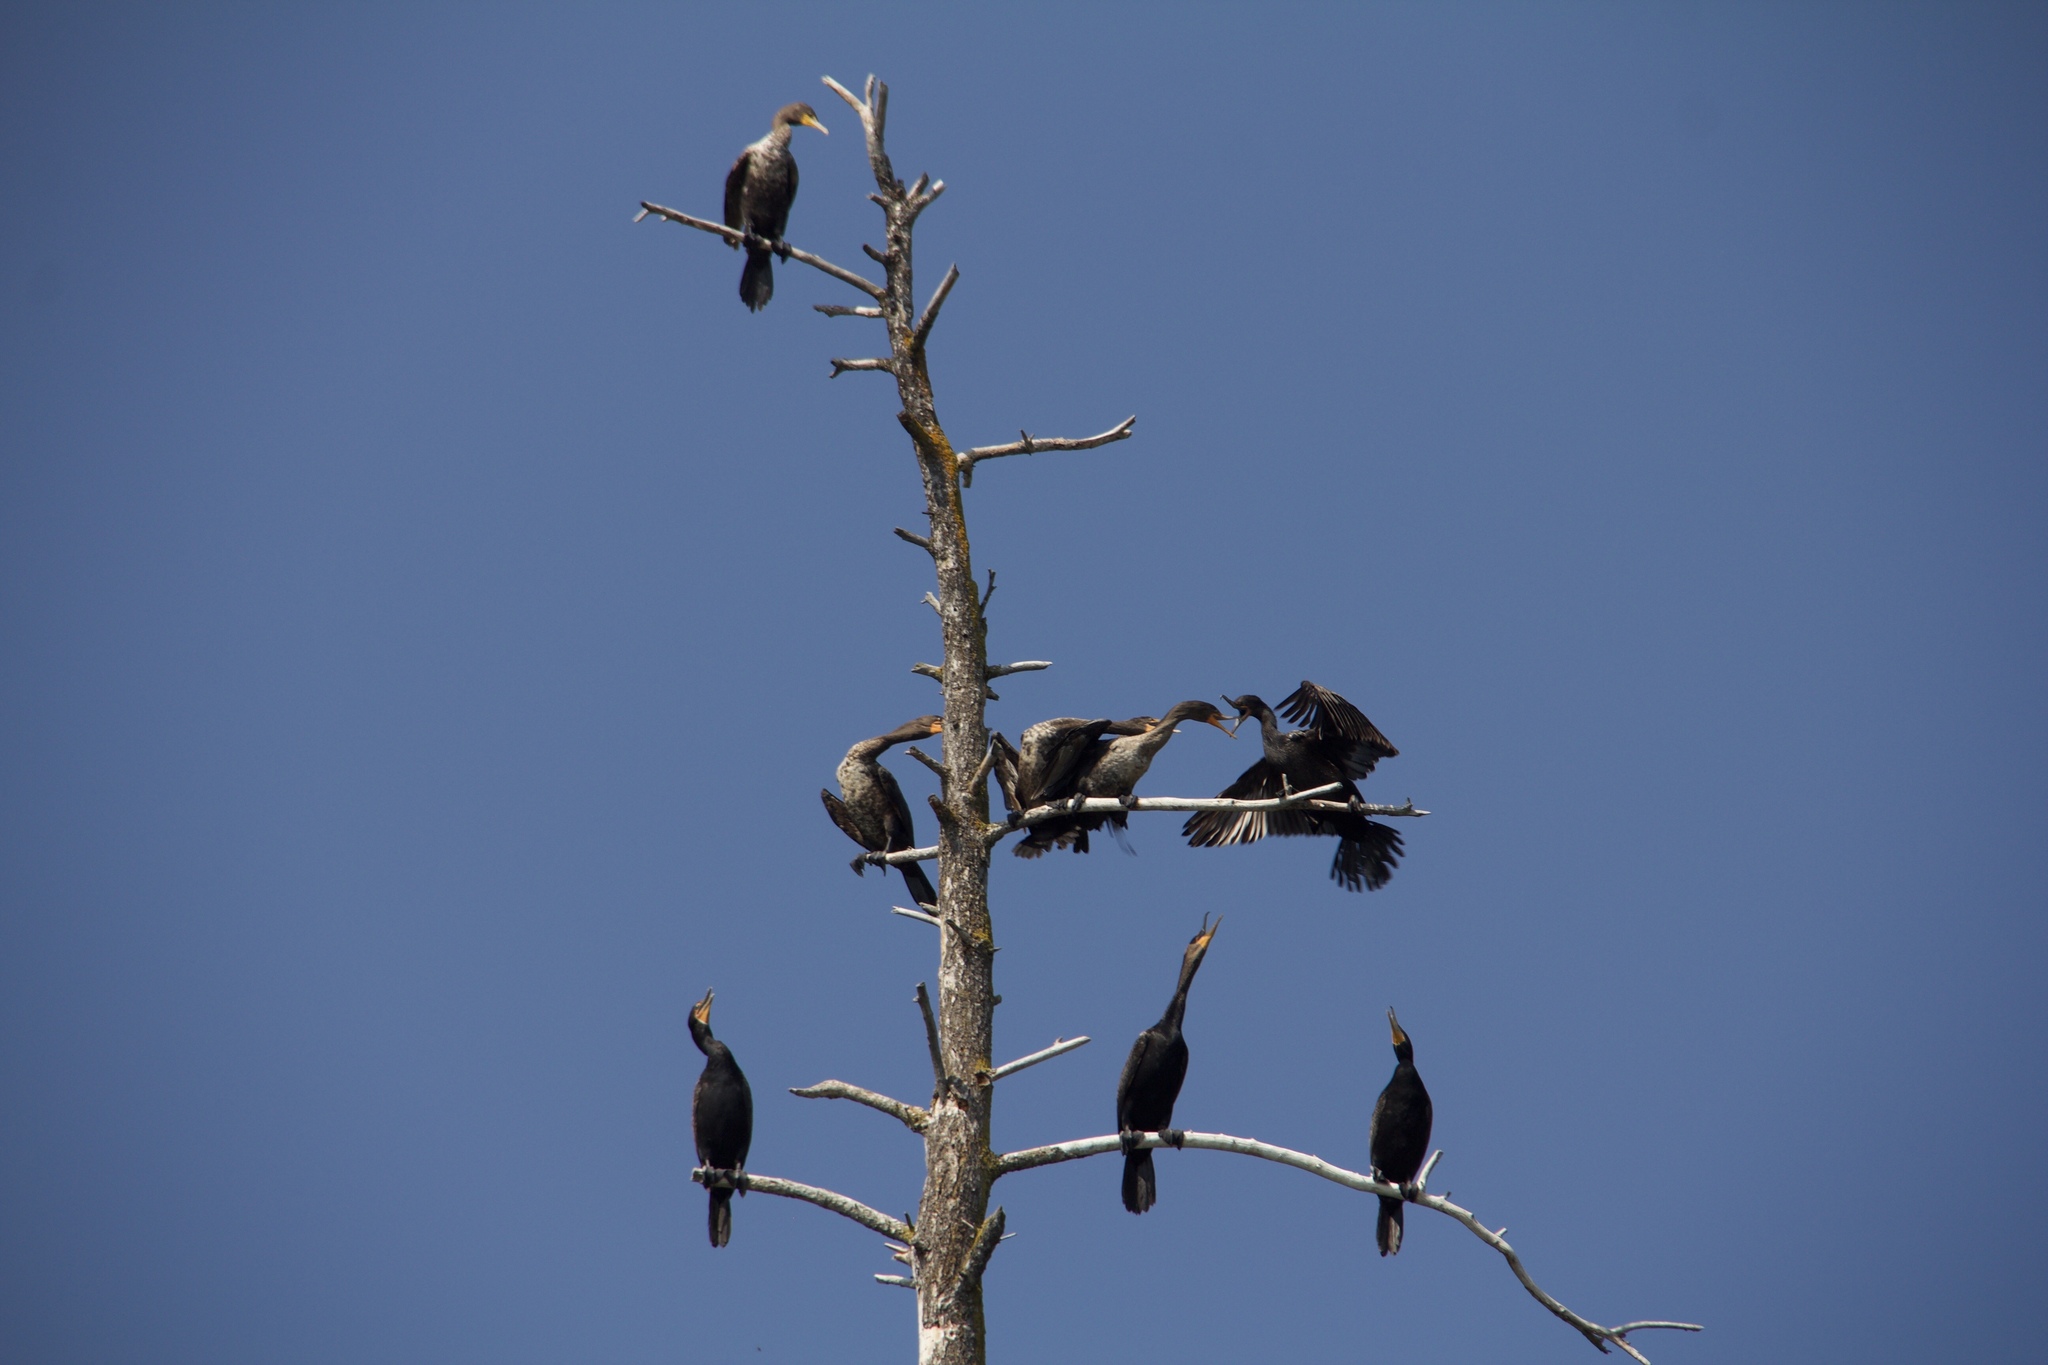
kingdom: Animalia
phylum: Chordata
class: Aves
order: Suliformes
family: Phalacrocoracidae
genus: Phalacrocorax
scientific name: Phalacrocorax auritus
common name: Double-crested cormorant
